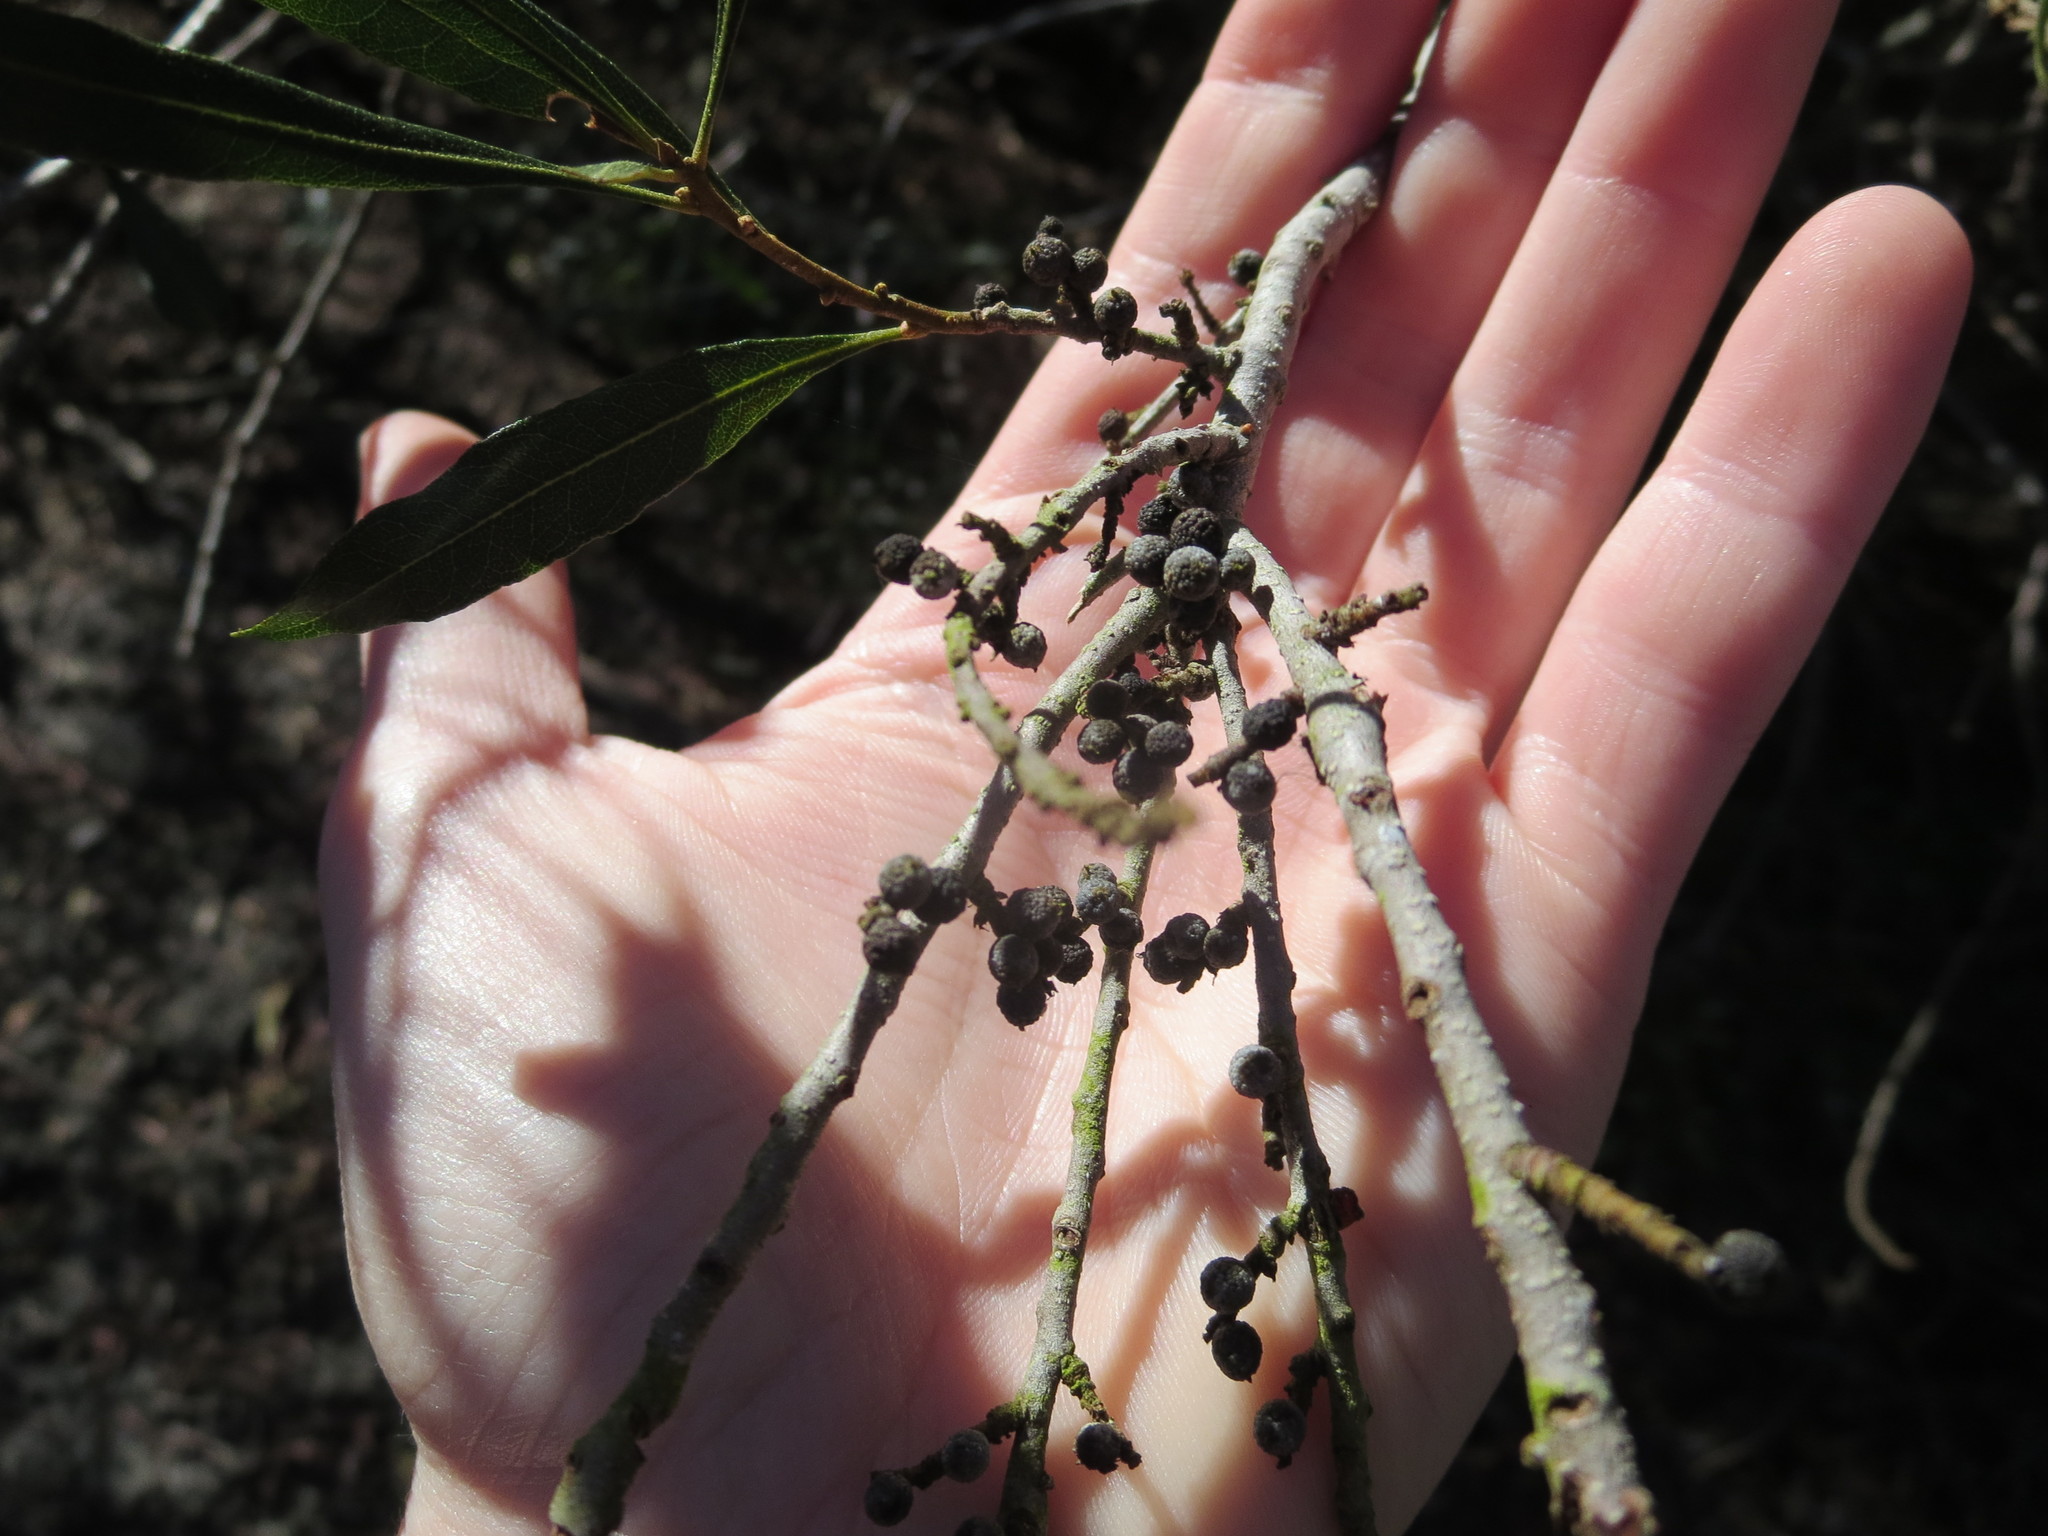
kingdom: Plantae
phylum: Tracheophyta
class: Magnoliopsida
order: Fagales
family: Myricaceae
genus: Morella
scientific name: Morella cerifera
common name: Wax myrtle
